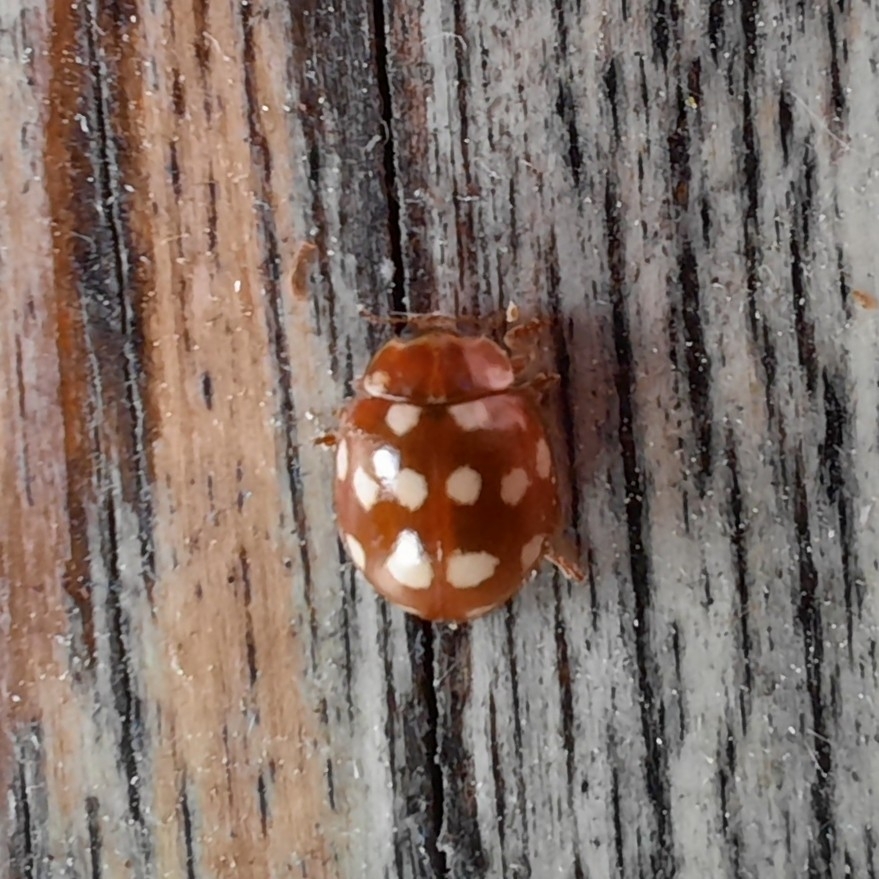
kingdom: Animalia
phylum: Arthropoda
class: Insecta
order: Coleoptera
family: Coccinellidae
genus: Calvia
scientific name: Calvia quatuordecimguttata
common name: Cream-spot ladybird
